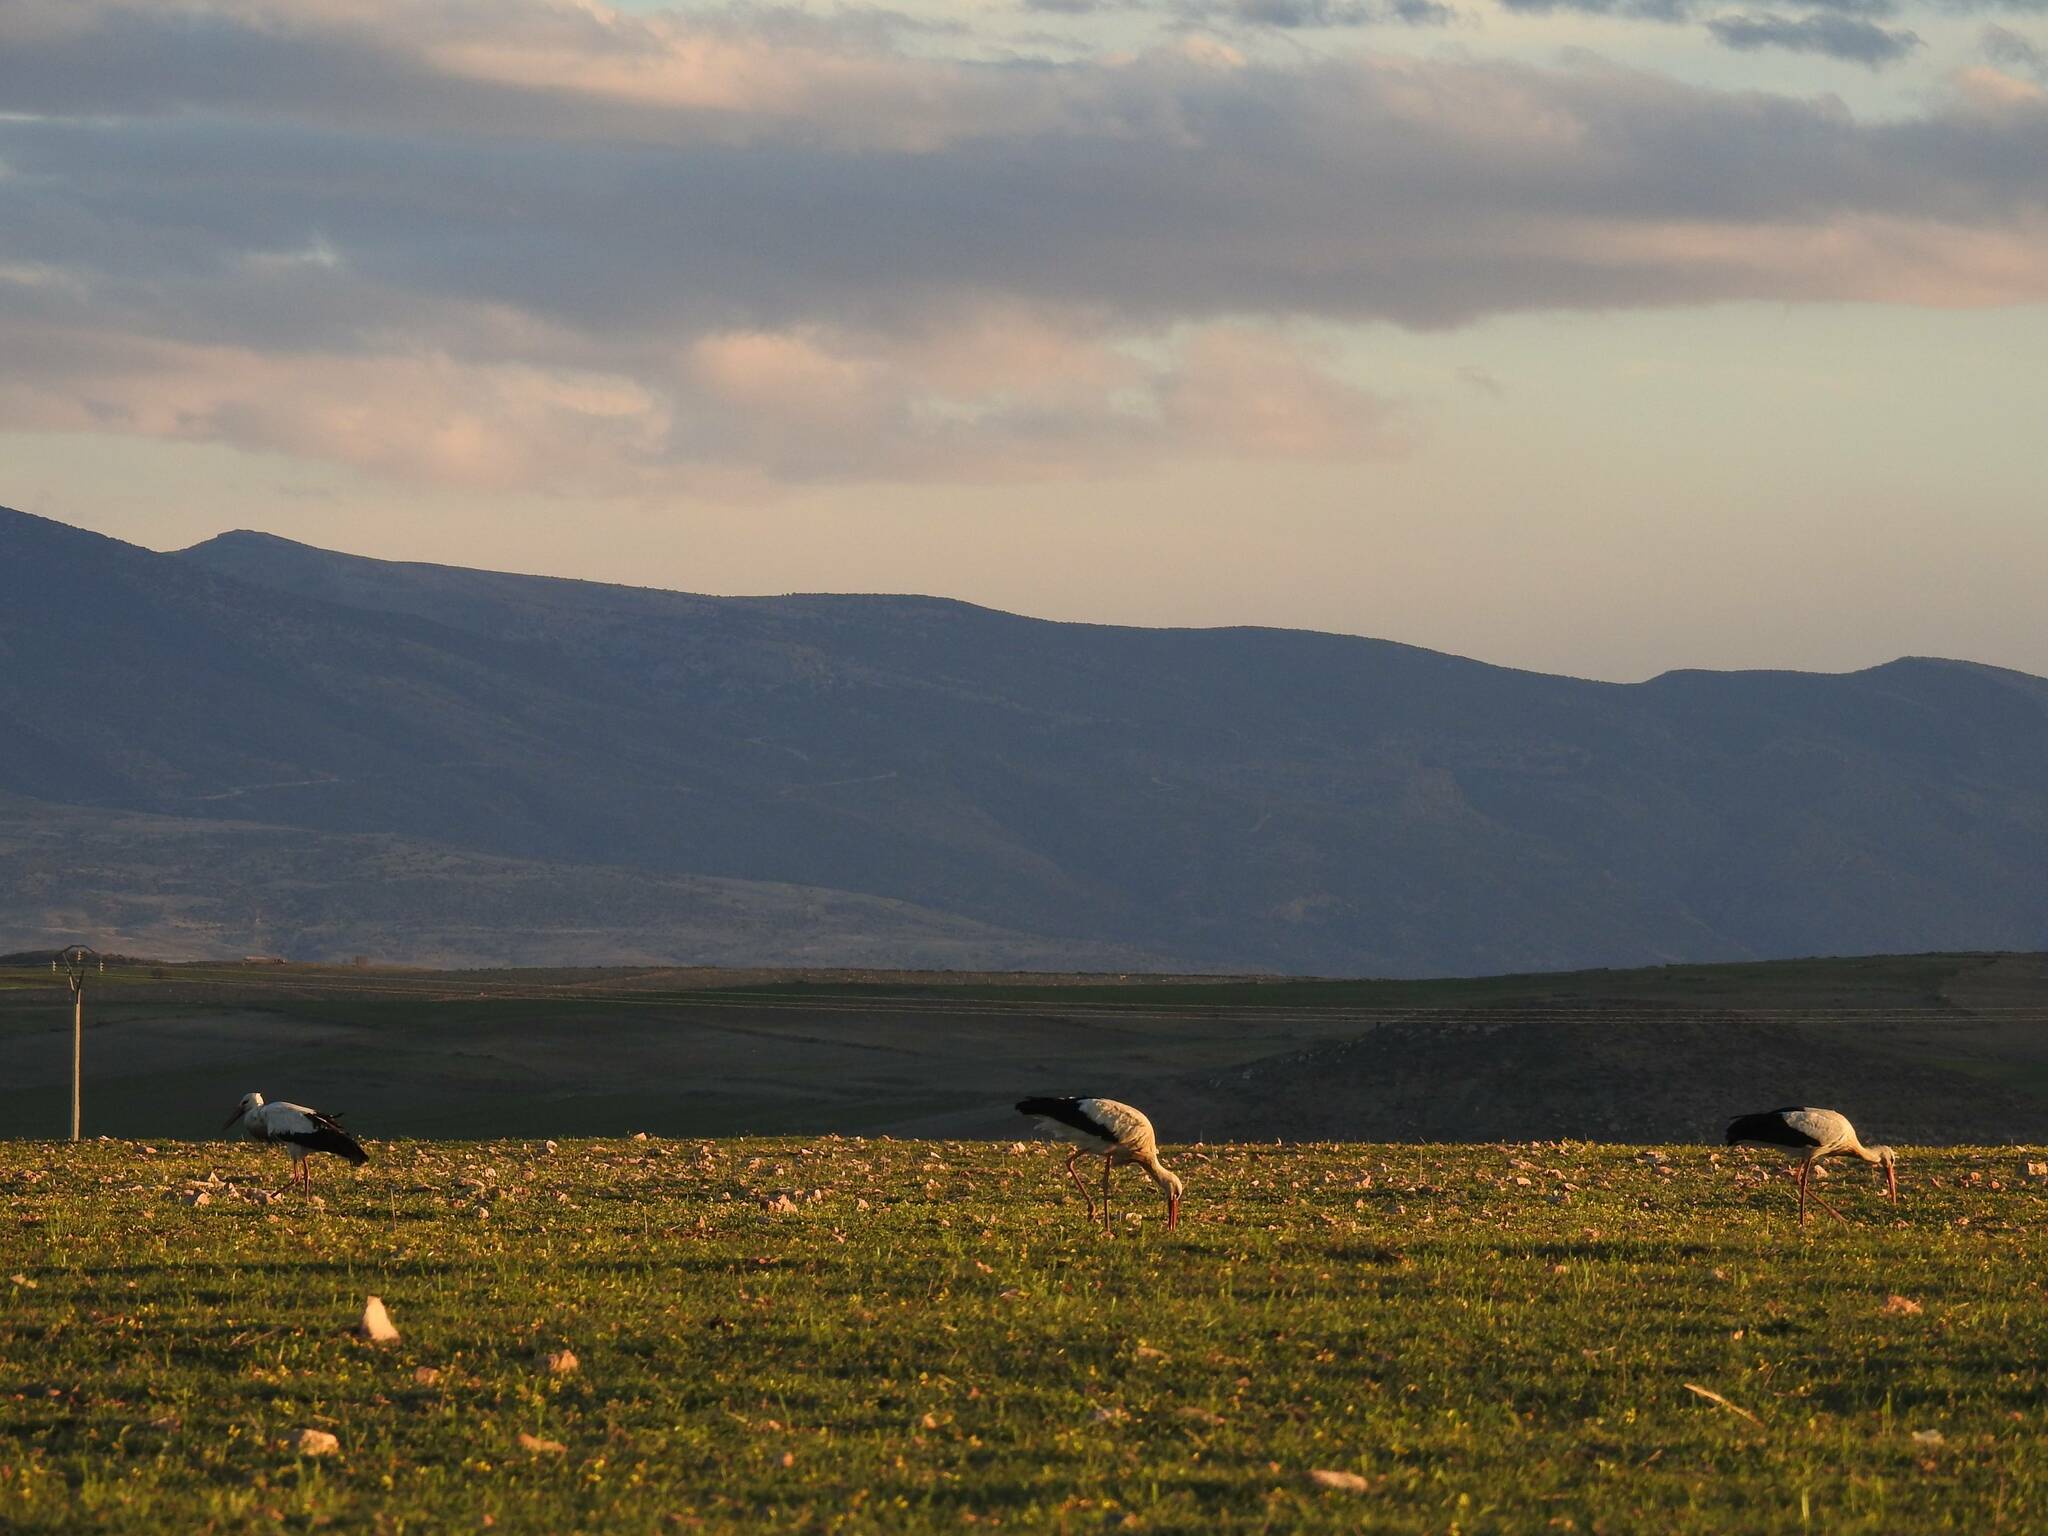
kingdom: Animalia
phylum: Chordata
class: Aves
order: Ciconiiformes
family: Ciconiidae
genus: Ciconia
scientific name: Ciconia ciconia
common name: White stork
